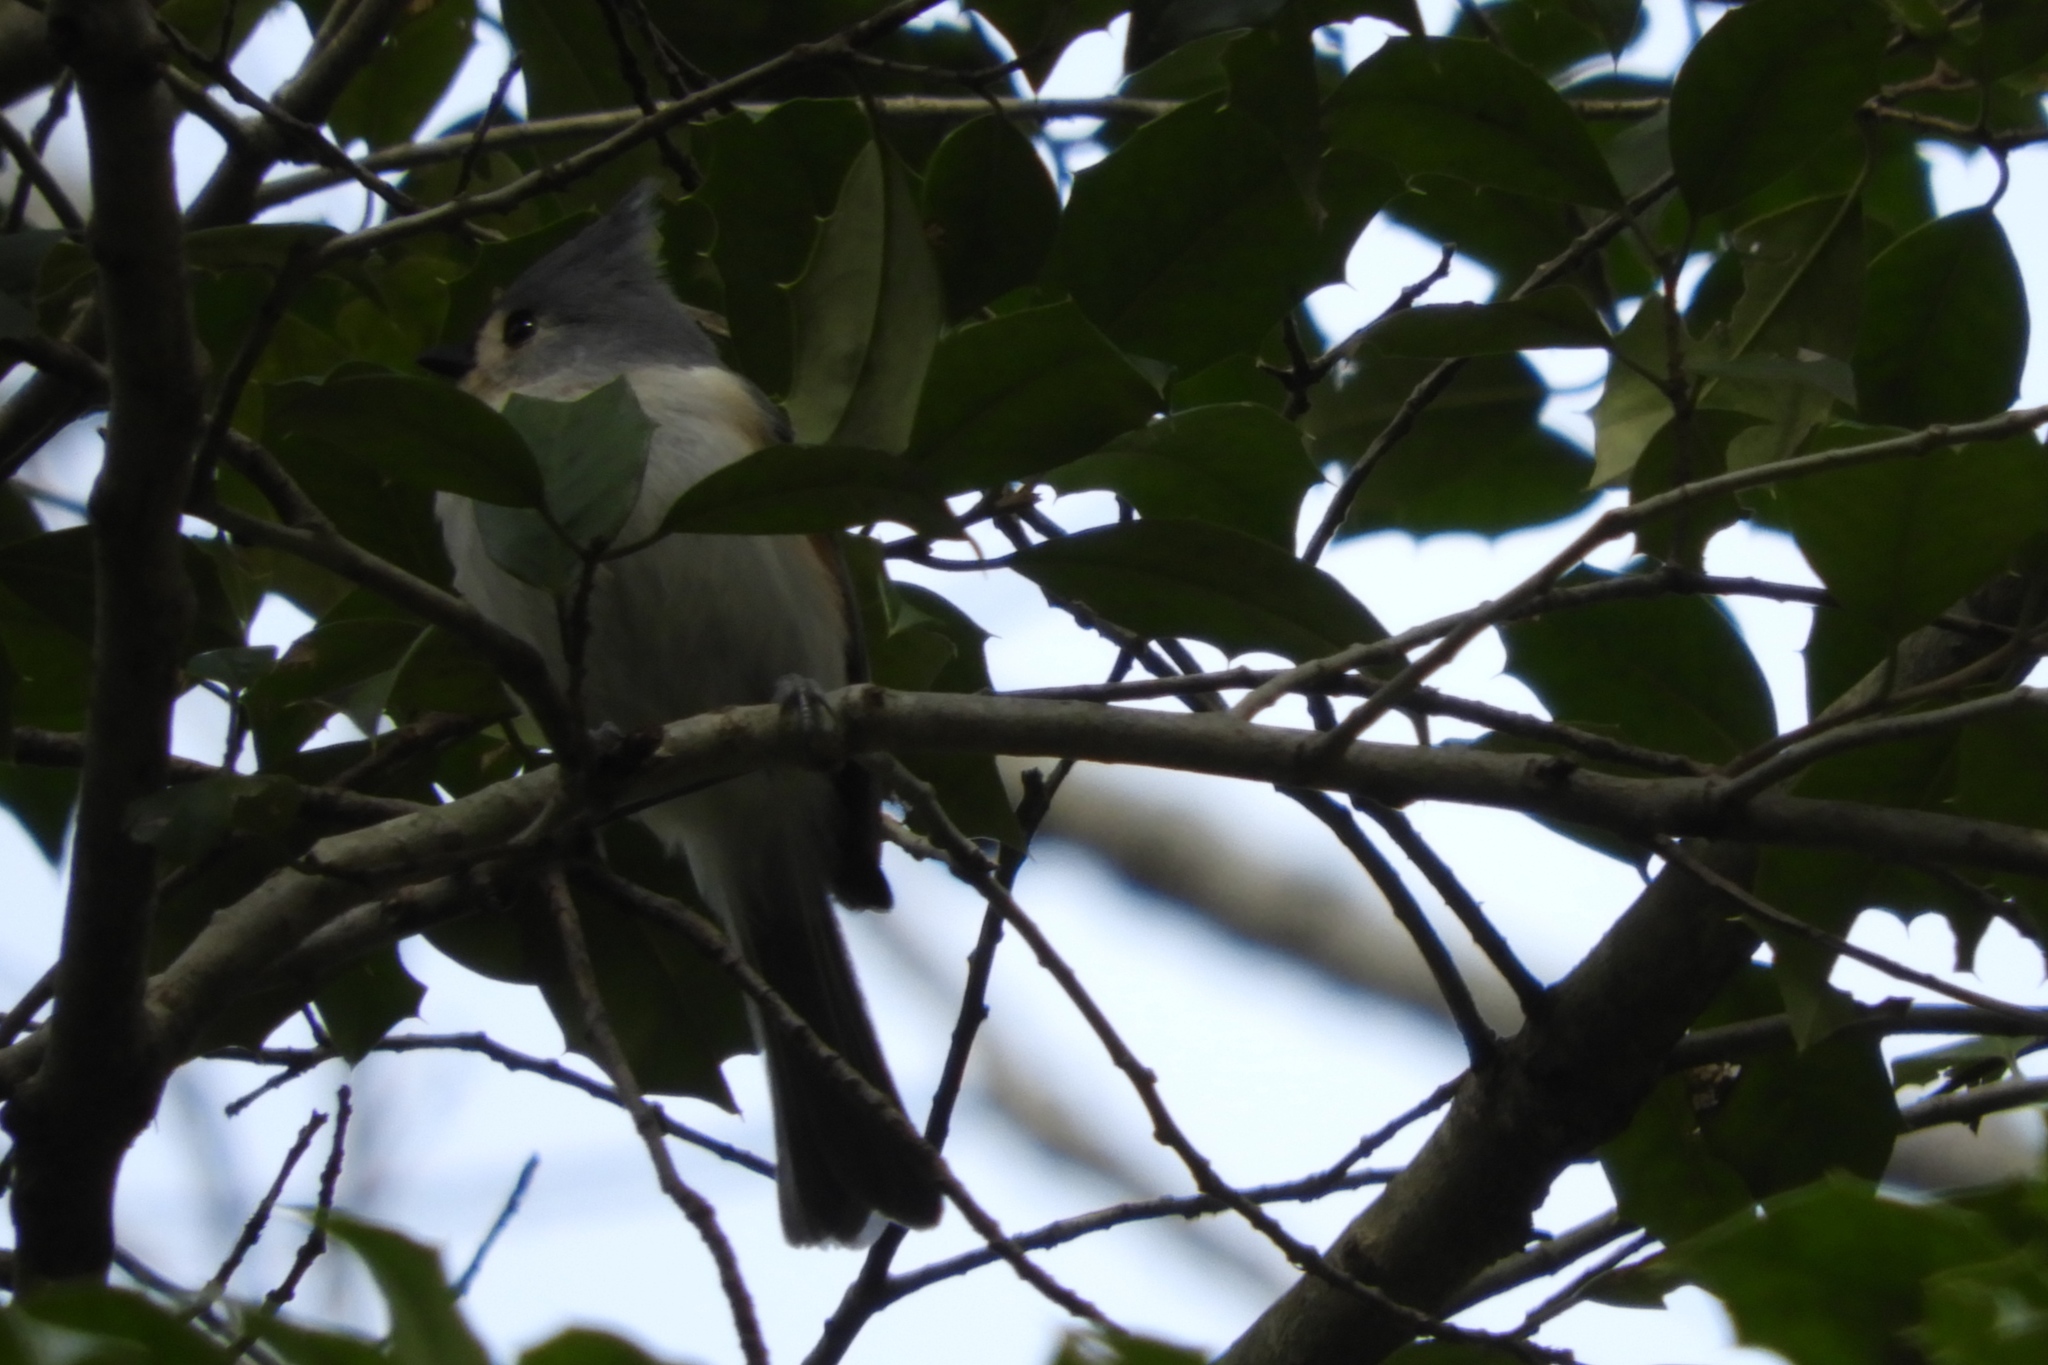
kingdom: Animalia
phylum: Chordata
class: Aves
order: Passeriformes
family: Paridae
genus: Baeolophus
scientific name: Baeolophus bicolor
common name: Tufted titmouse
